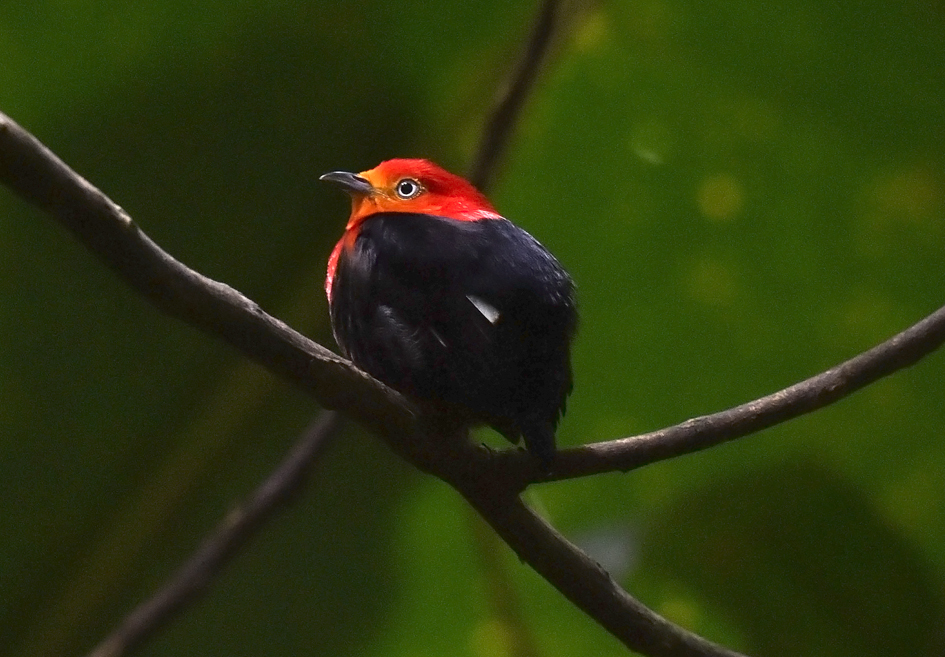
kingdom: Animalia
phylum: Chordata
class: Aves
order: Passeriformes
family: Pipridae
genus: Pipra
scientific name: Pipra aureola
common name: Crimson-hooded manakin
